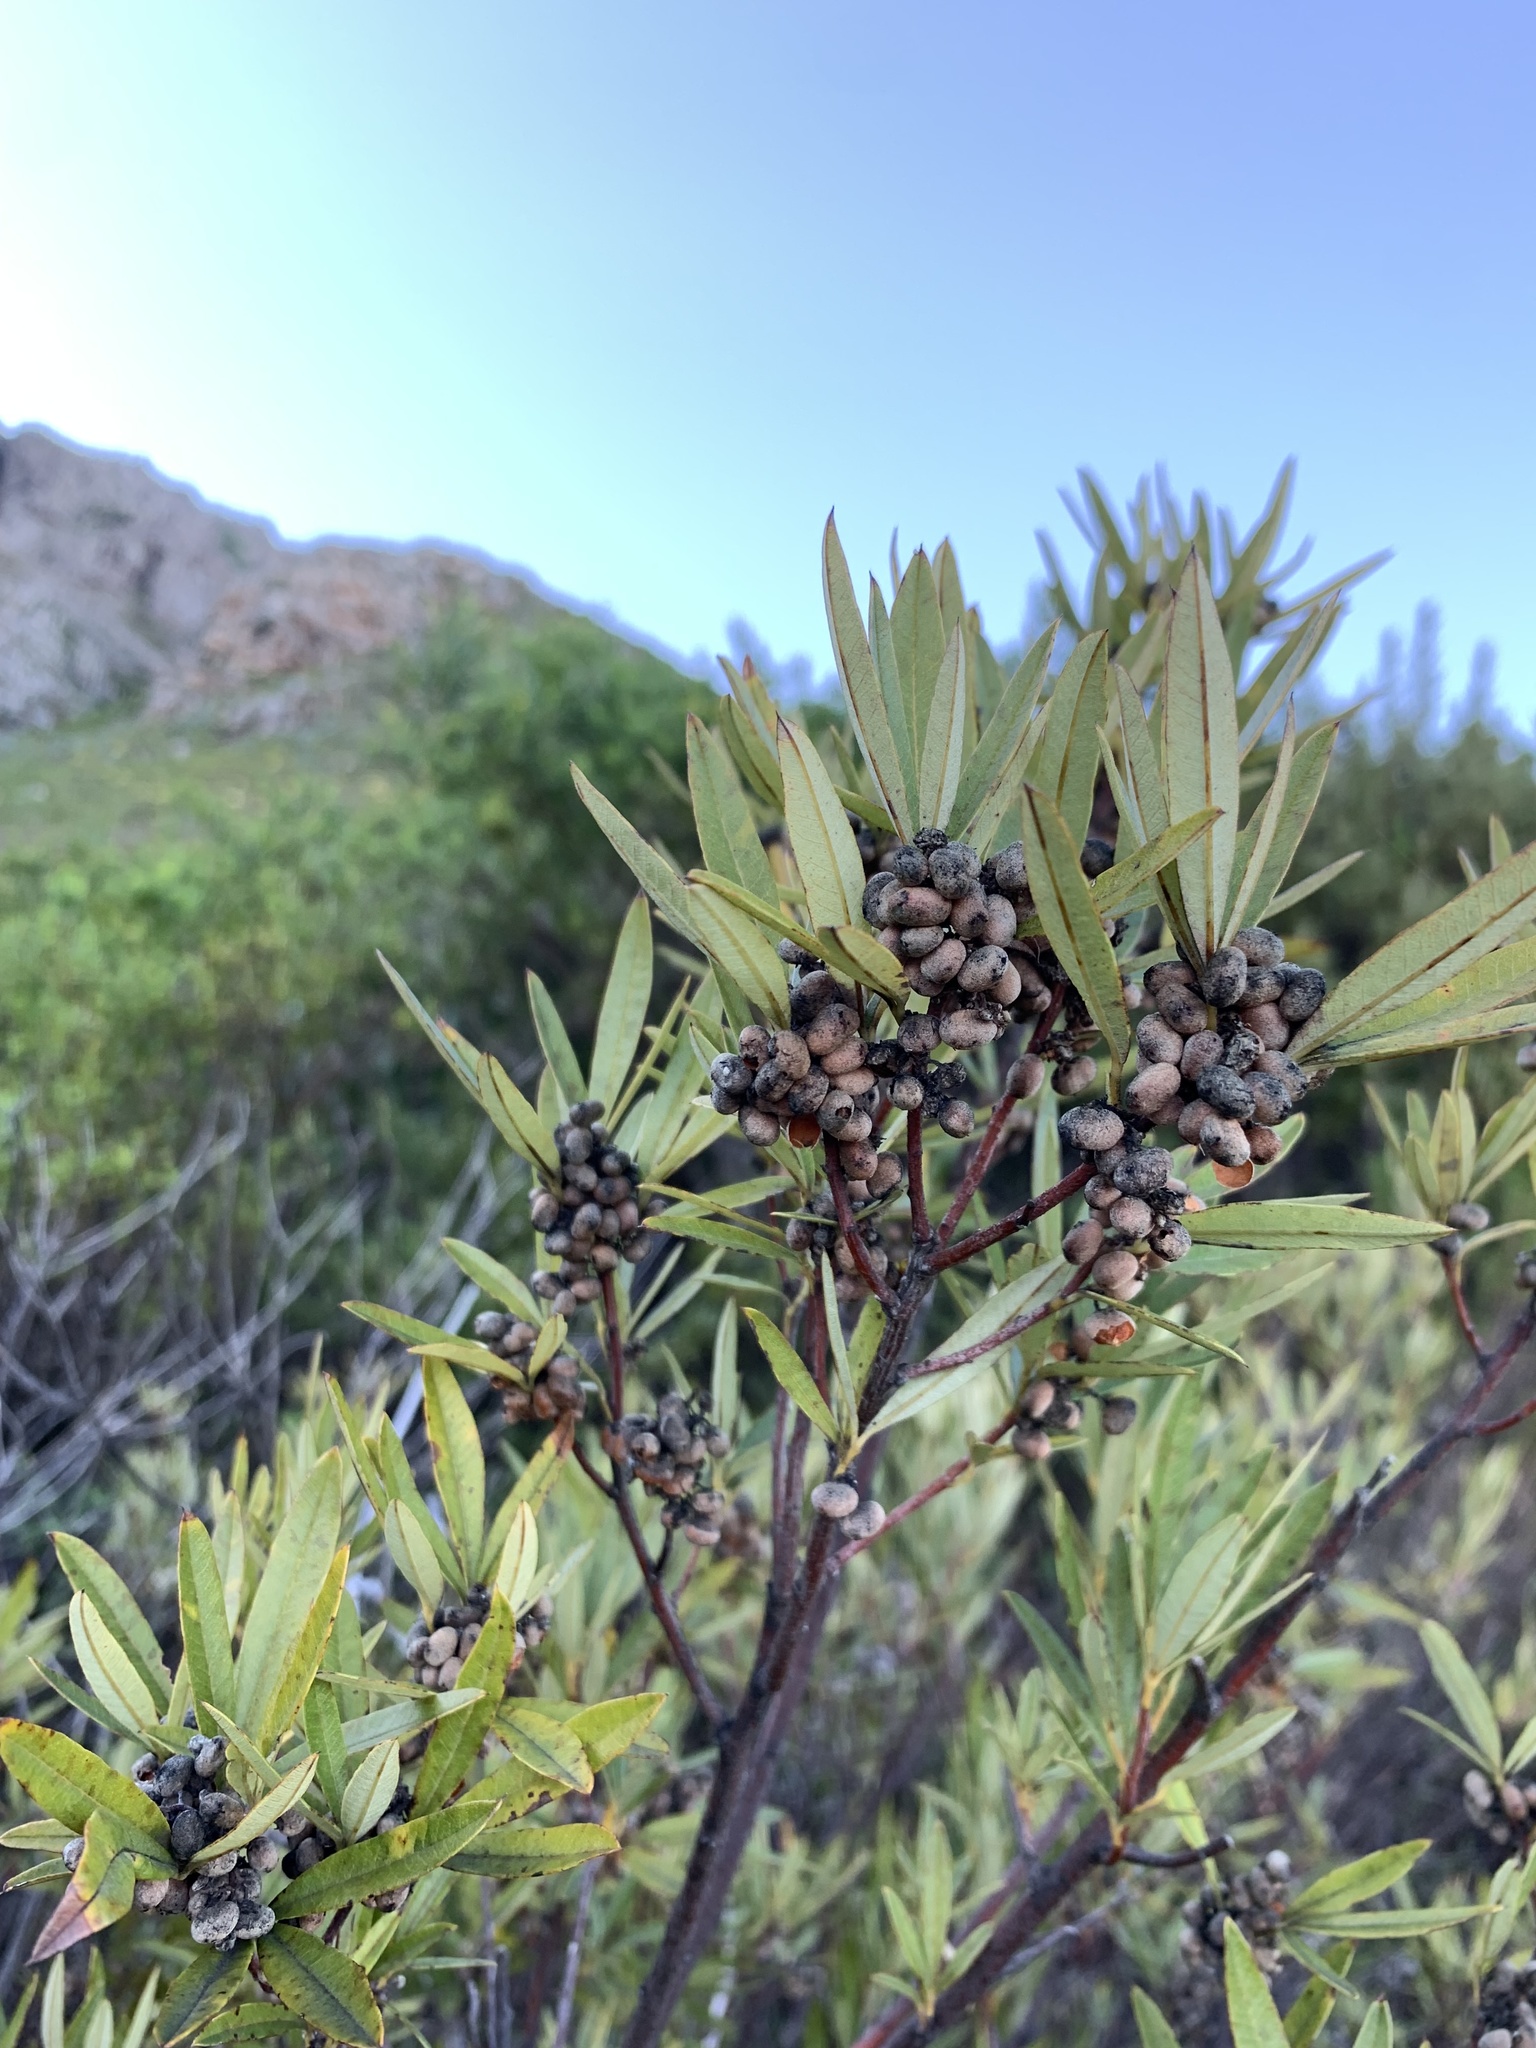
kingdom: Plantae
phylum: Tracheophyta
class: Magnoliopsida
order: Sapindales
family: Anacardiaceae
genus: Searsia
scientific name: Searsia angustifolia
